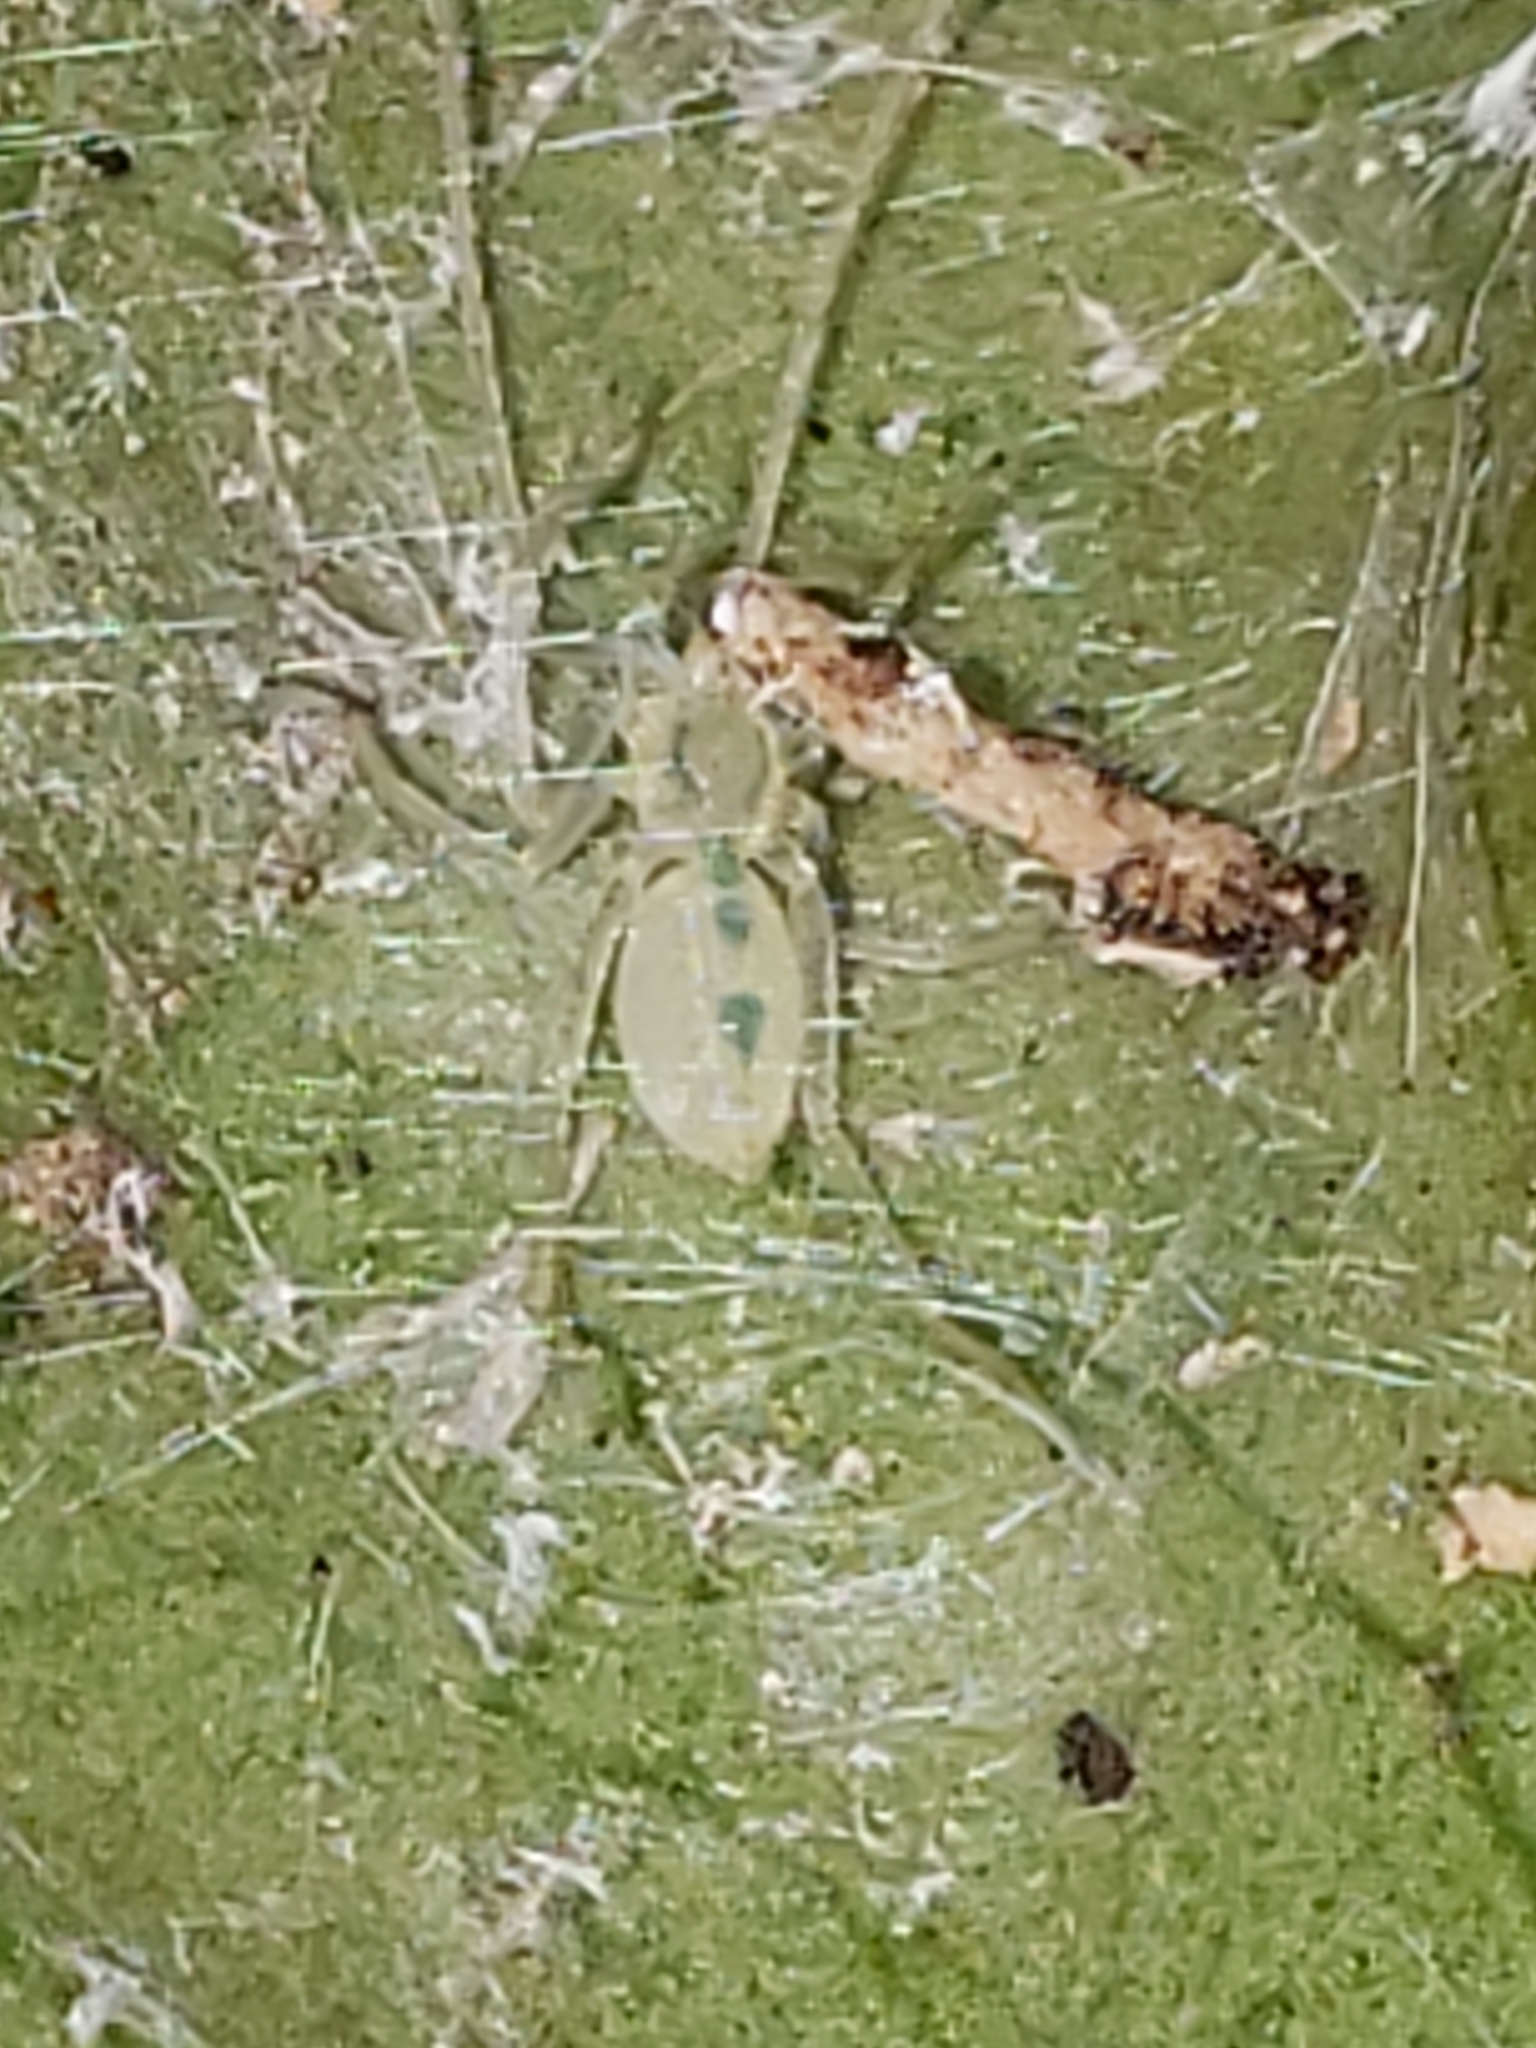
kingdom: Animalia
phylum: Arthropoda
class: Arachnida
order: Araneae
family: Anyphaenidae
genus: Wulfila
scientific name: Wulfila albens
